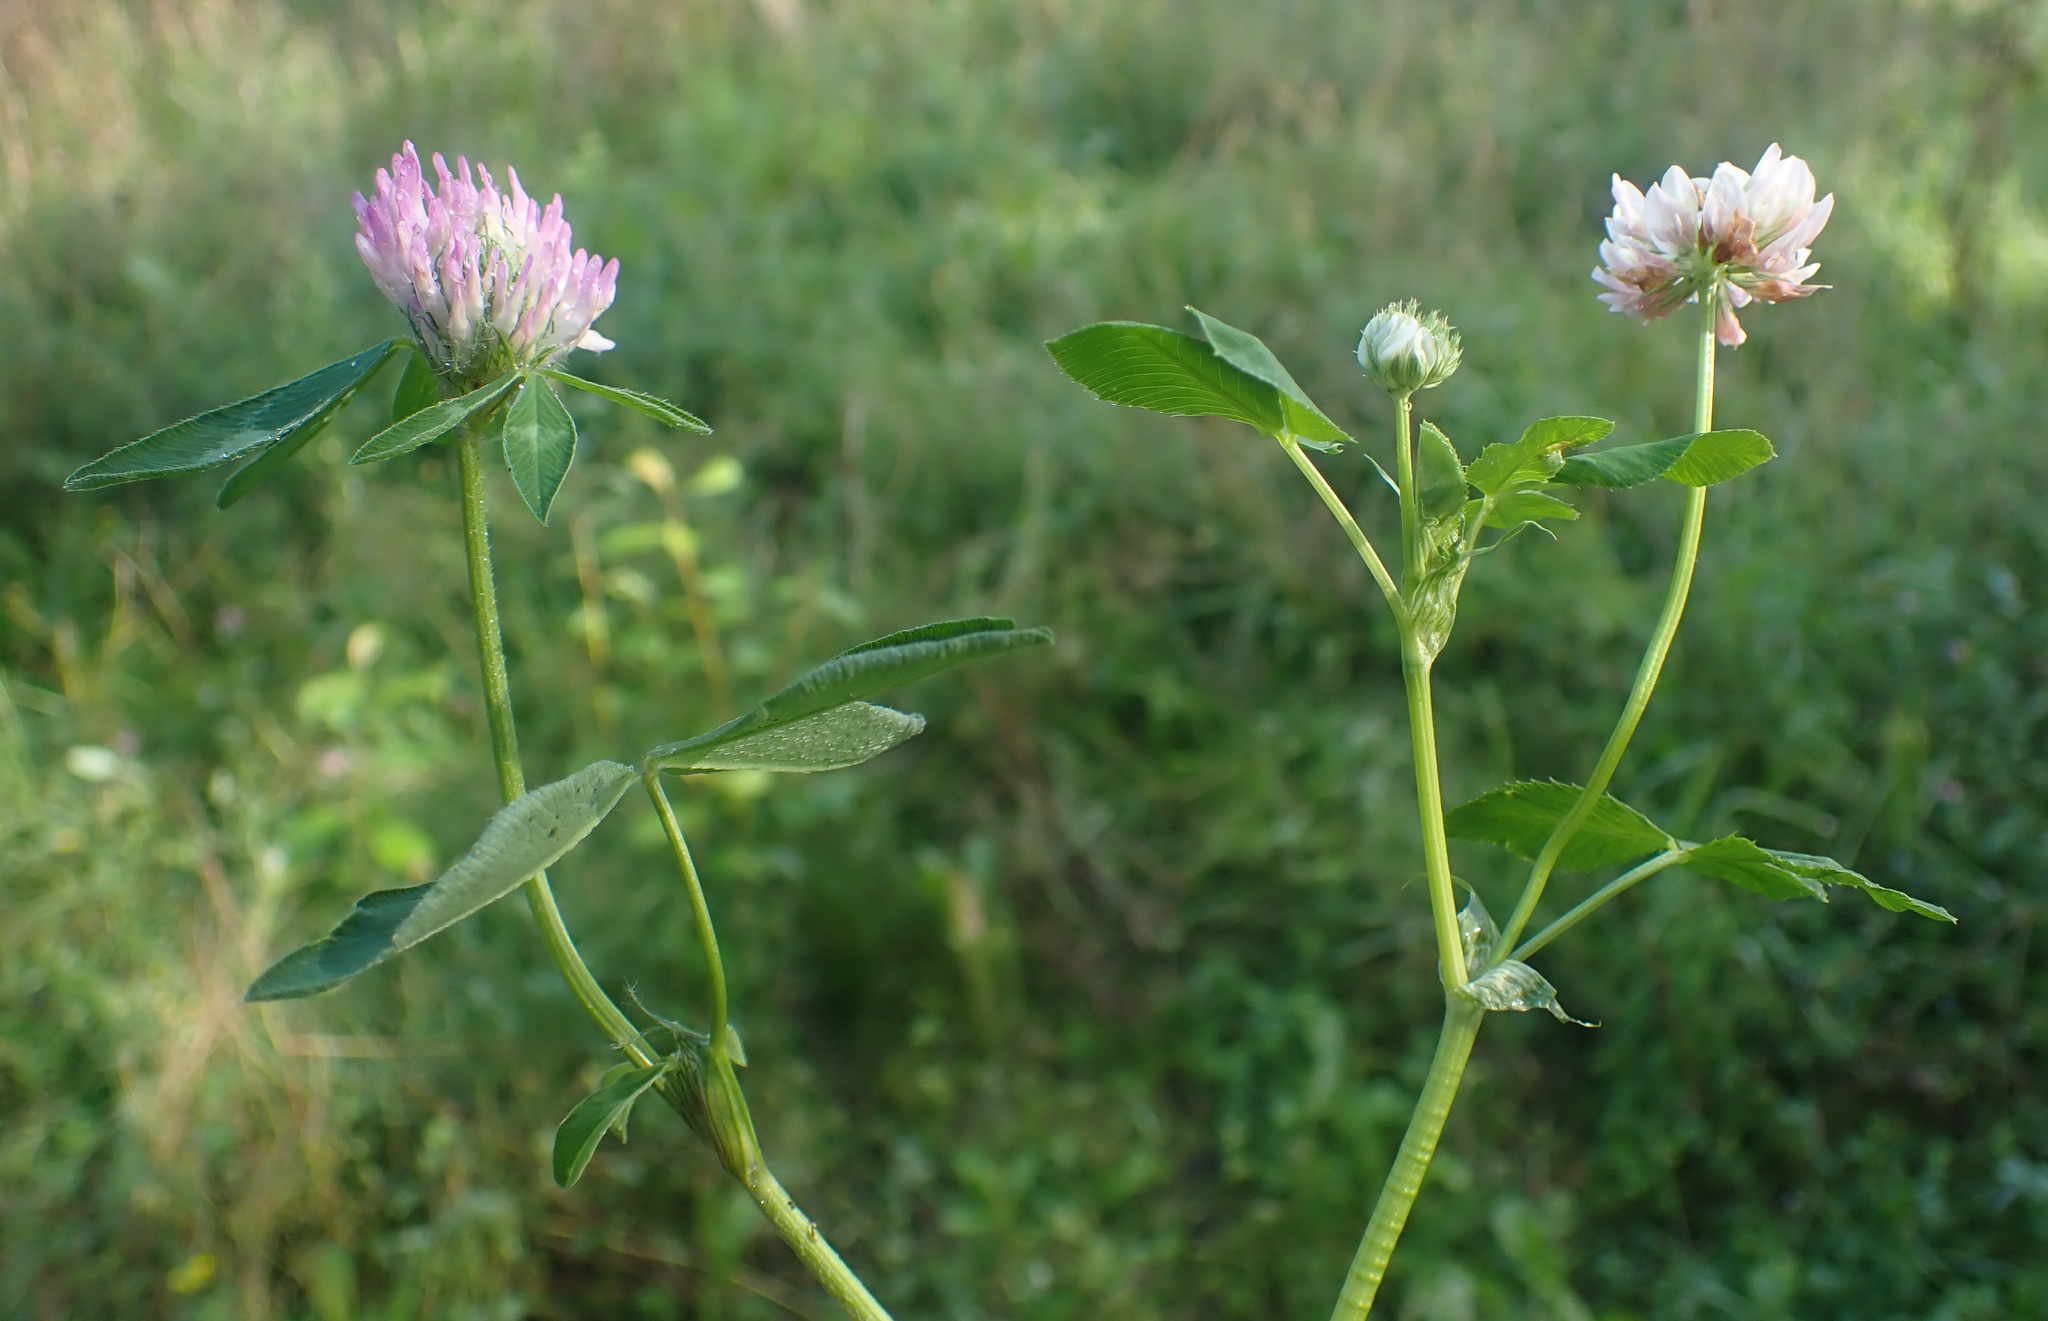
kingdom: Plantae
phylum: Tracheophyta
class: Magnoliopsida
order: Fabales
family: Fabaceae
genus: Trifolium
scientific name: Trifolium hybridum
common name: Alsike clover
